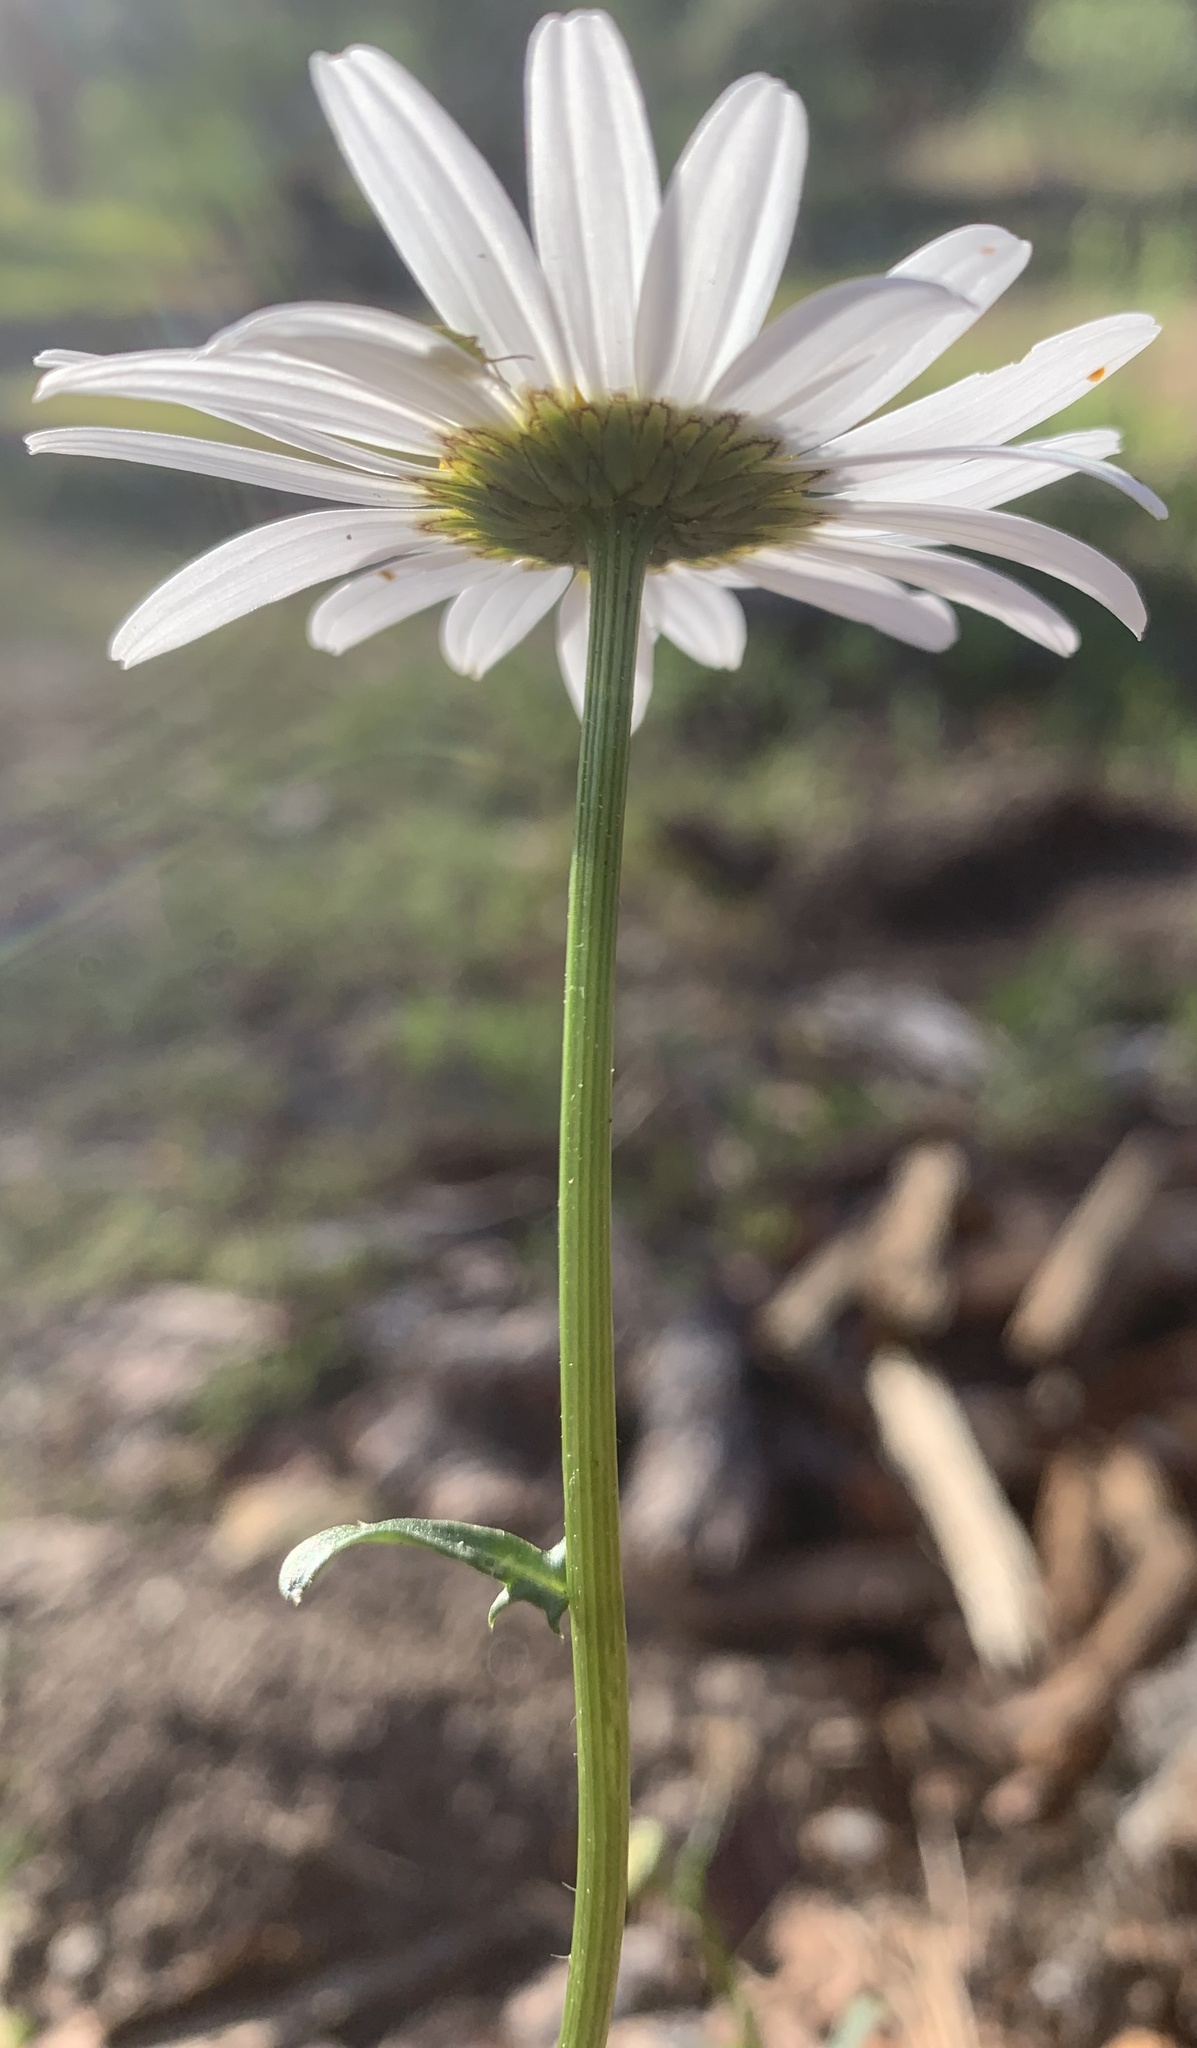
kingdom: Plantae
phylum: Tracheophyta
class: Magnoliopsida
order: Asterales
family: Asteraceae
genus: Leucanthemum
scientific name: Leucanthemum vulgare
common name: Oxeye daisy
